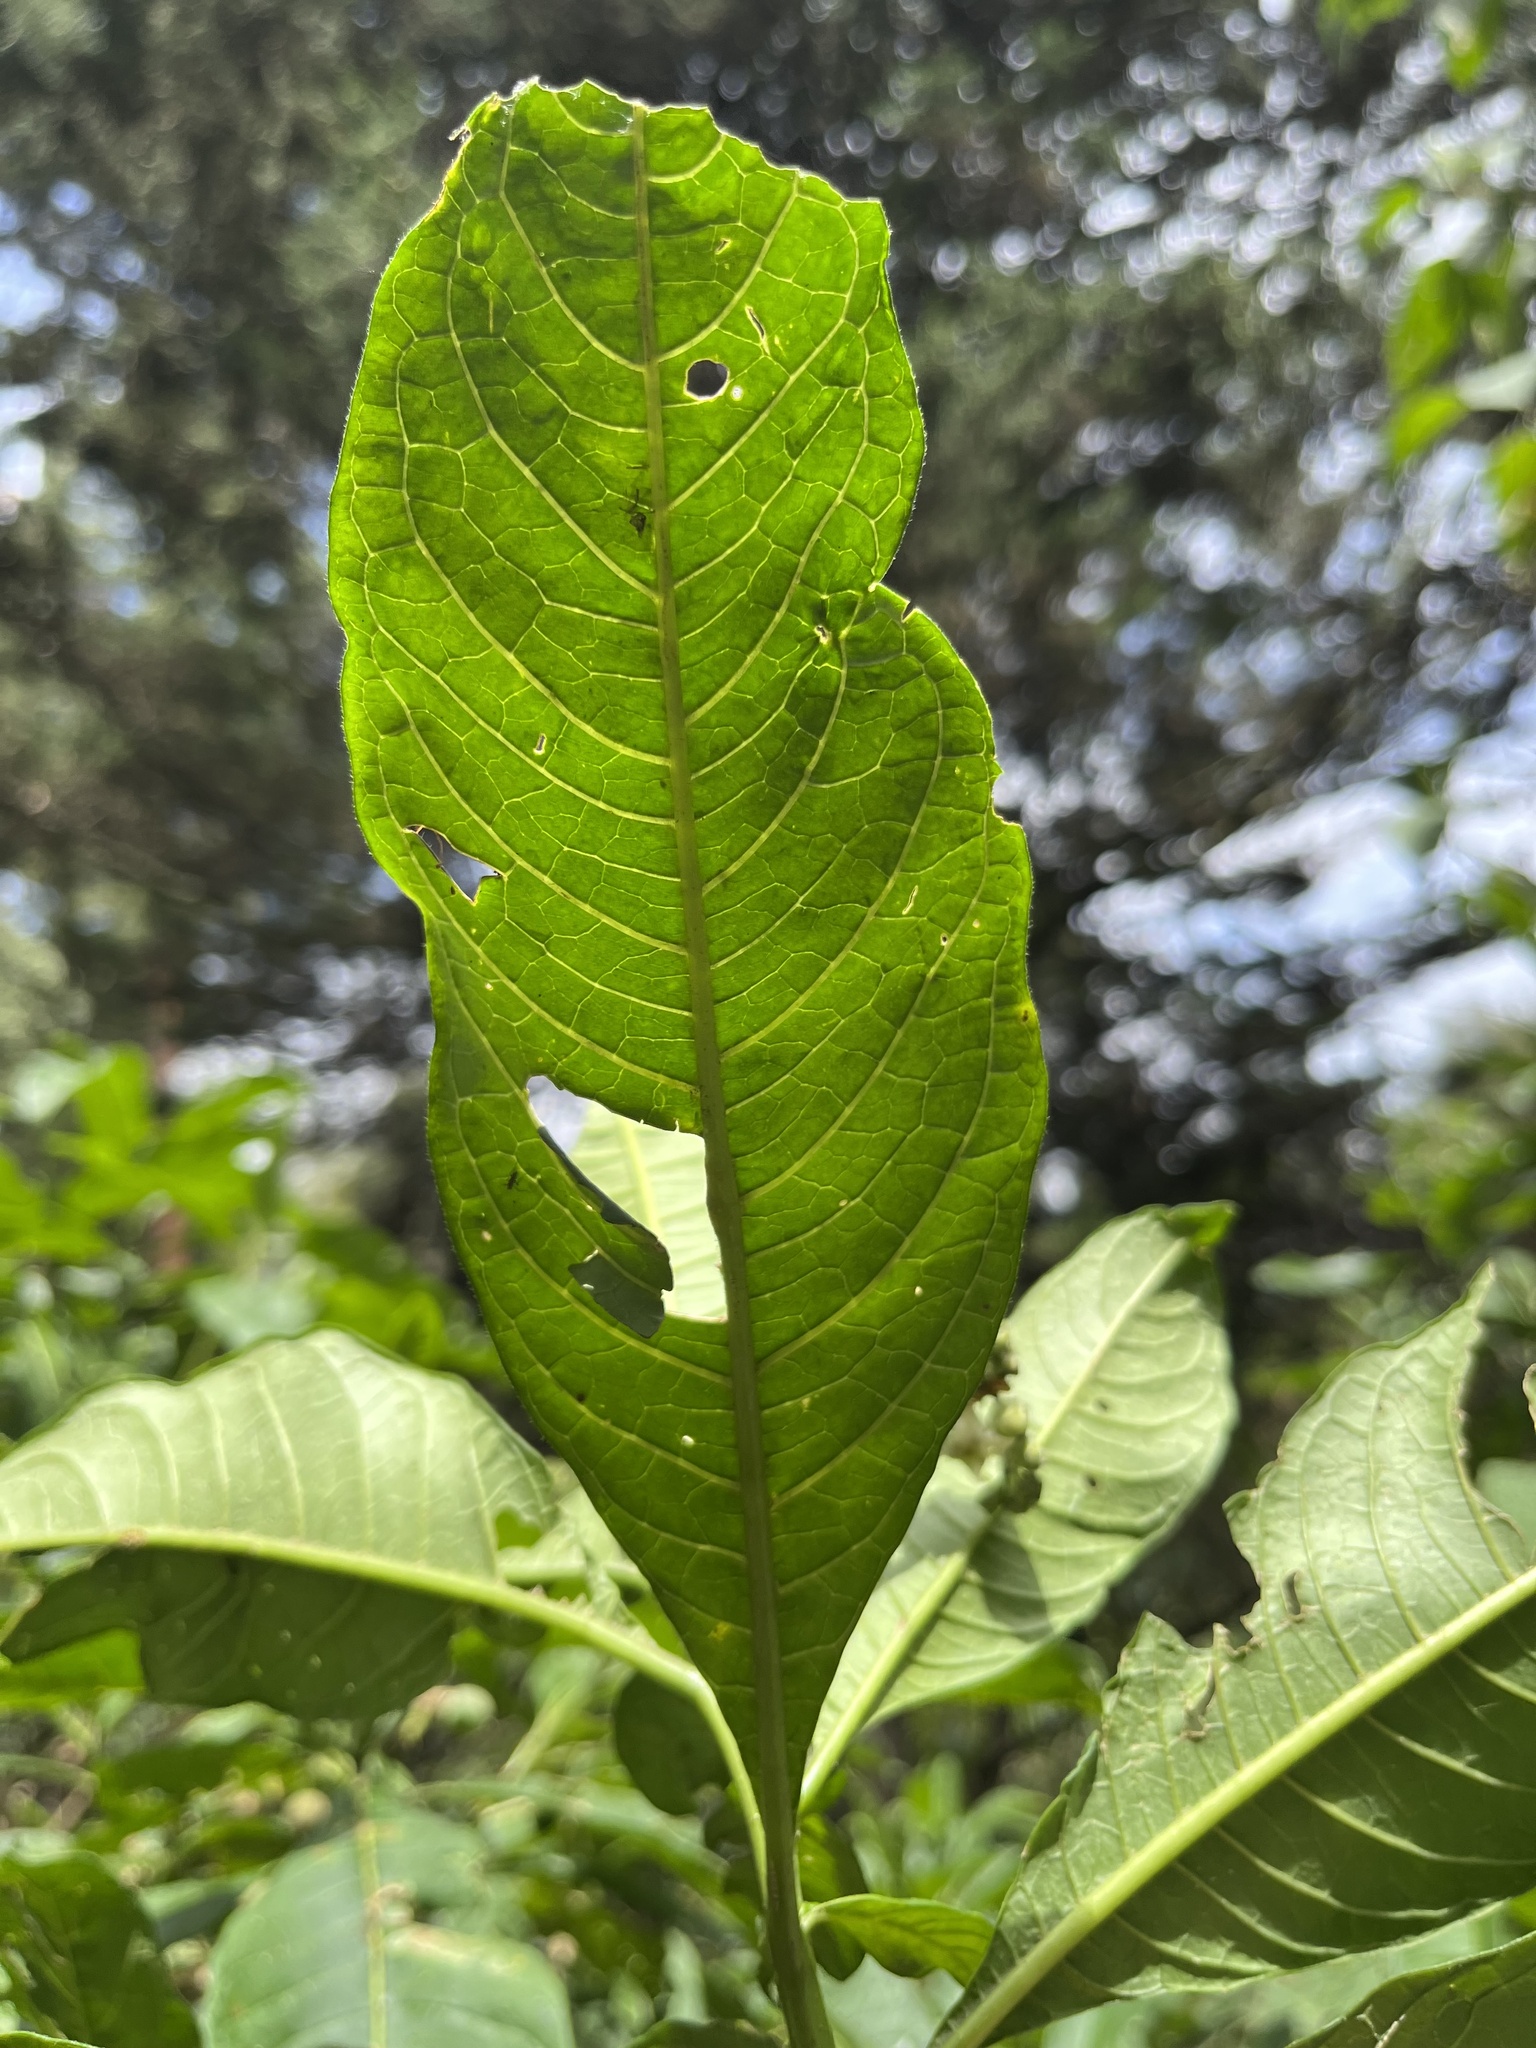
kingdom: Plantae
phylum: Tracheophyta
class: Magnoliopsida
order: Solanales
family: Solanaceae
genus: Solanum
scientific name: Solanum oblongifolium
